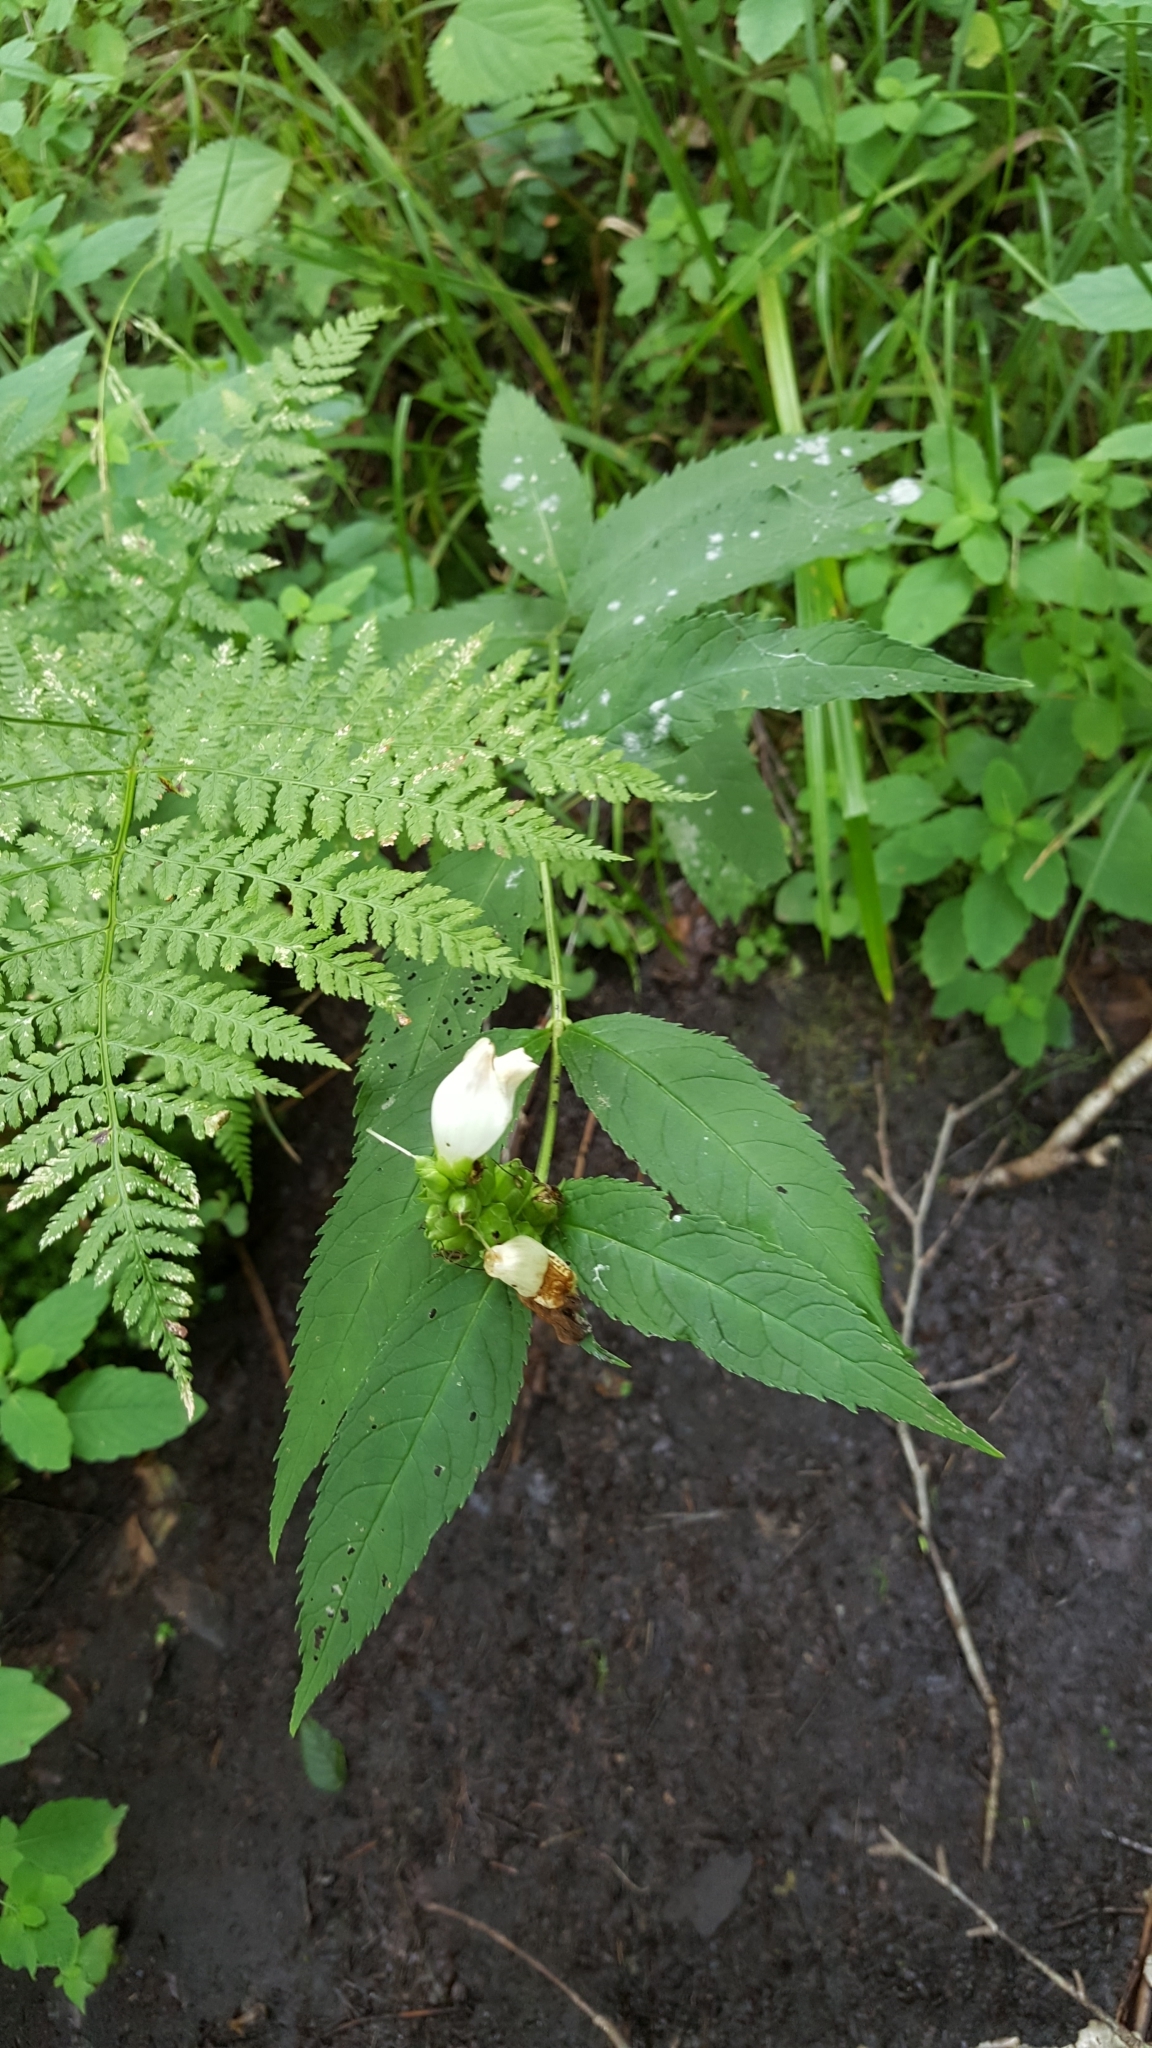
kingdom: Plantae
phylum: Tracheophyta
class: Magnoliopsida
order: Lamiales
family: Plantaginaceae
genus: Chelone
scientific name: Chelone glabra
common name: Snakehead
